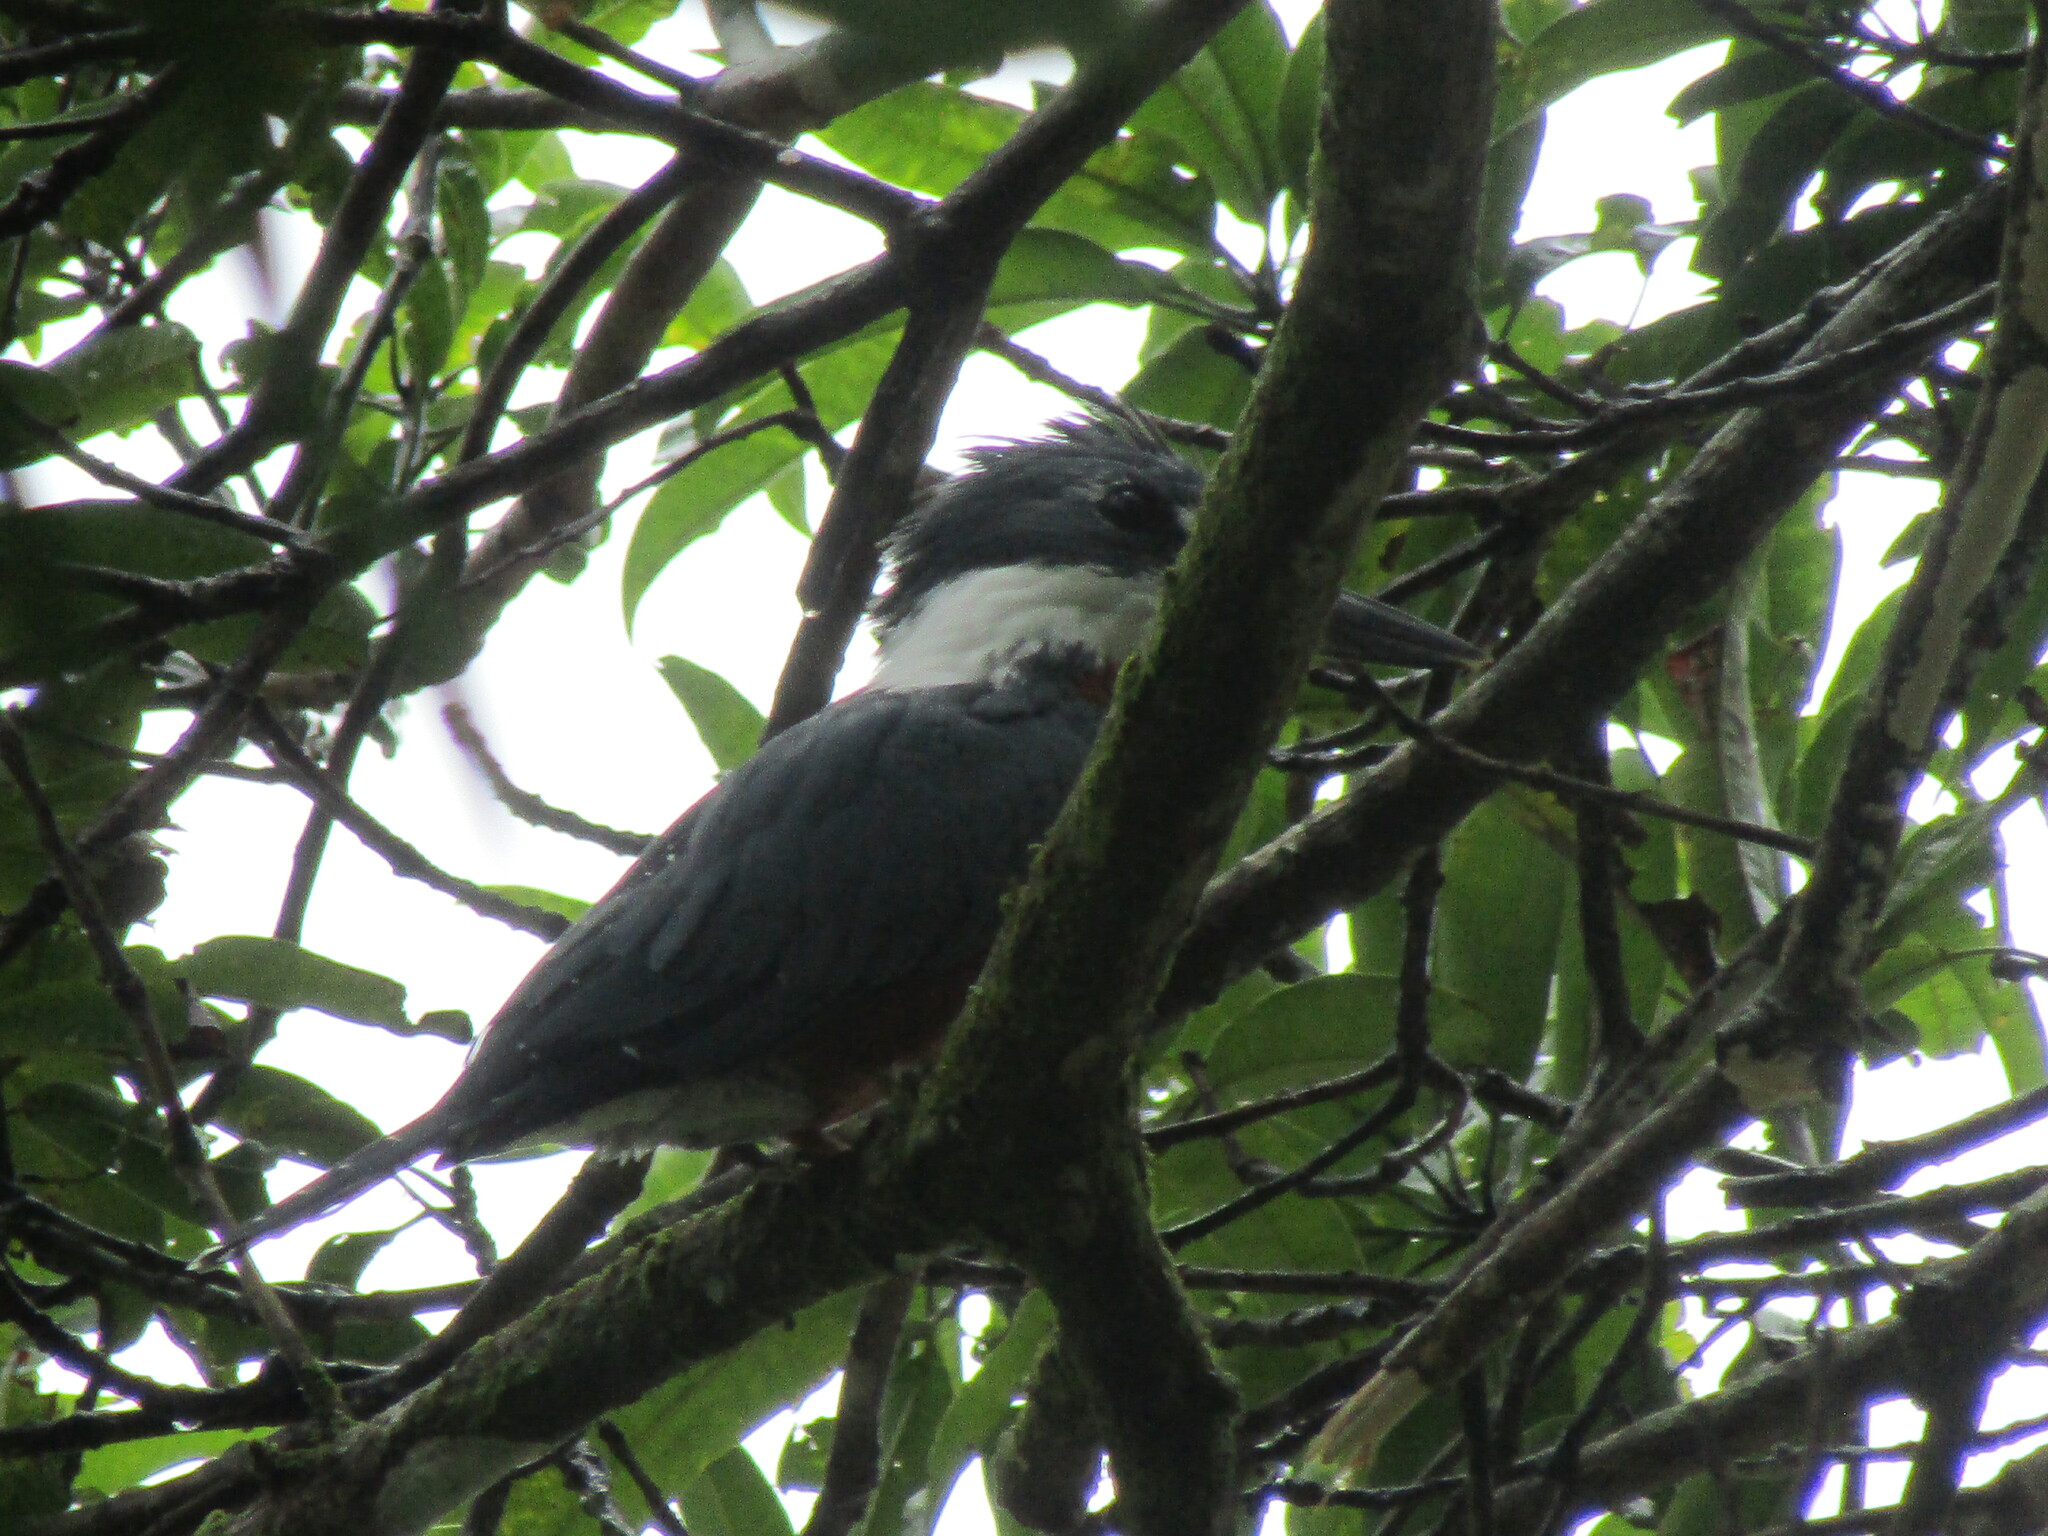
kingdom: Animalia
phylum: Chordata
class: Aves
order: Coraciiformes
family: Alcedinidae
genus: Megaceryle
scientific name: Megaceryle torquata
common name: Ringed kingfisher
